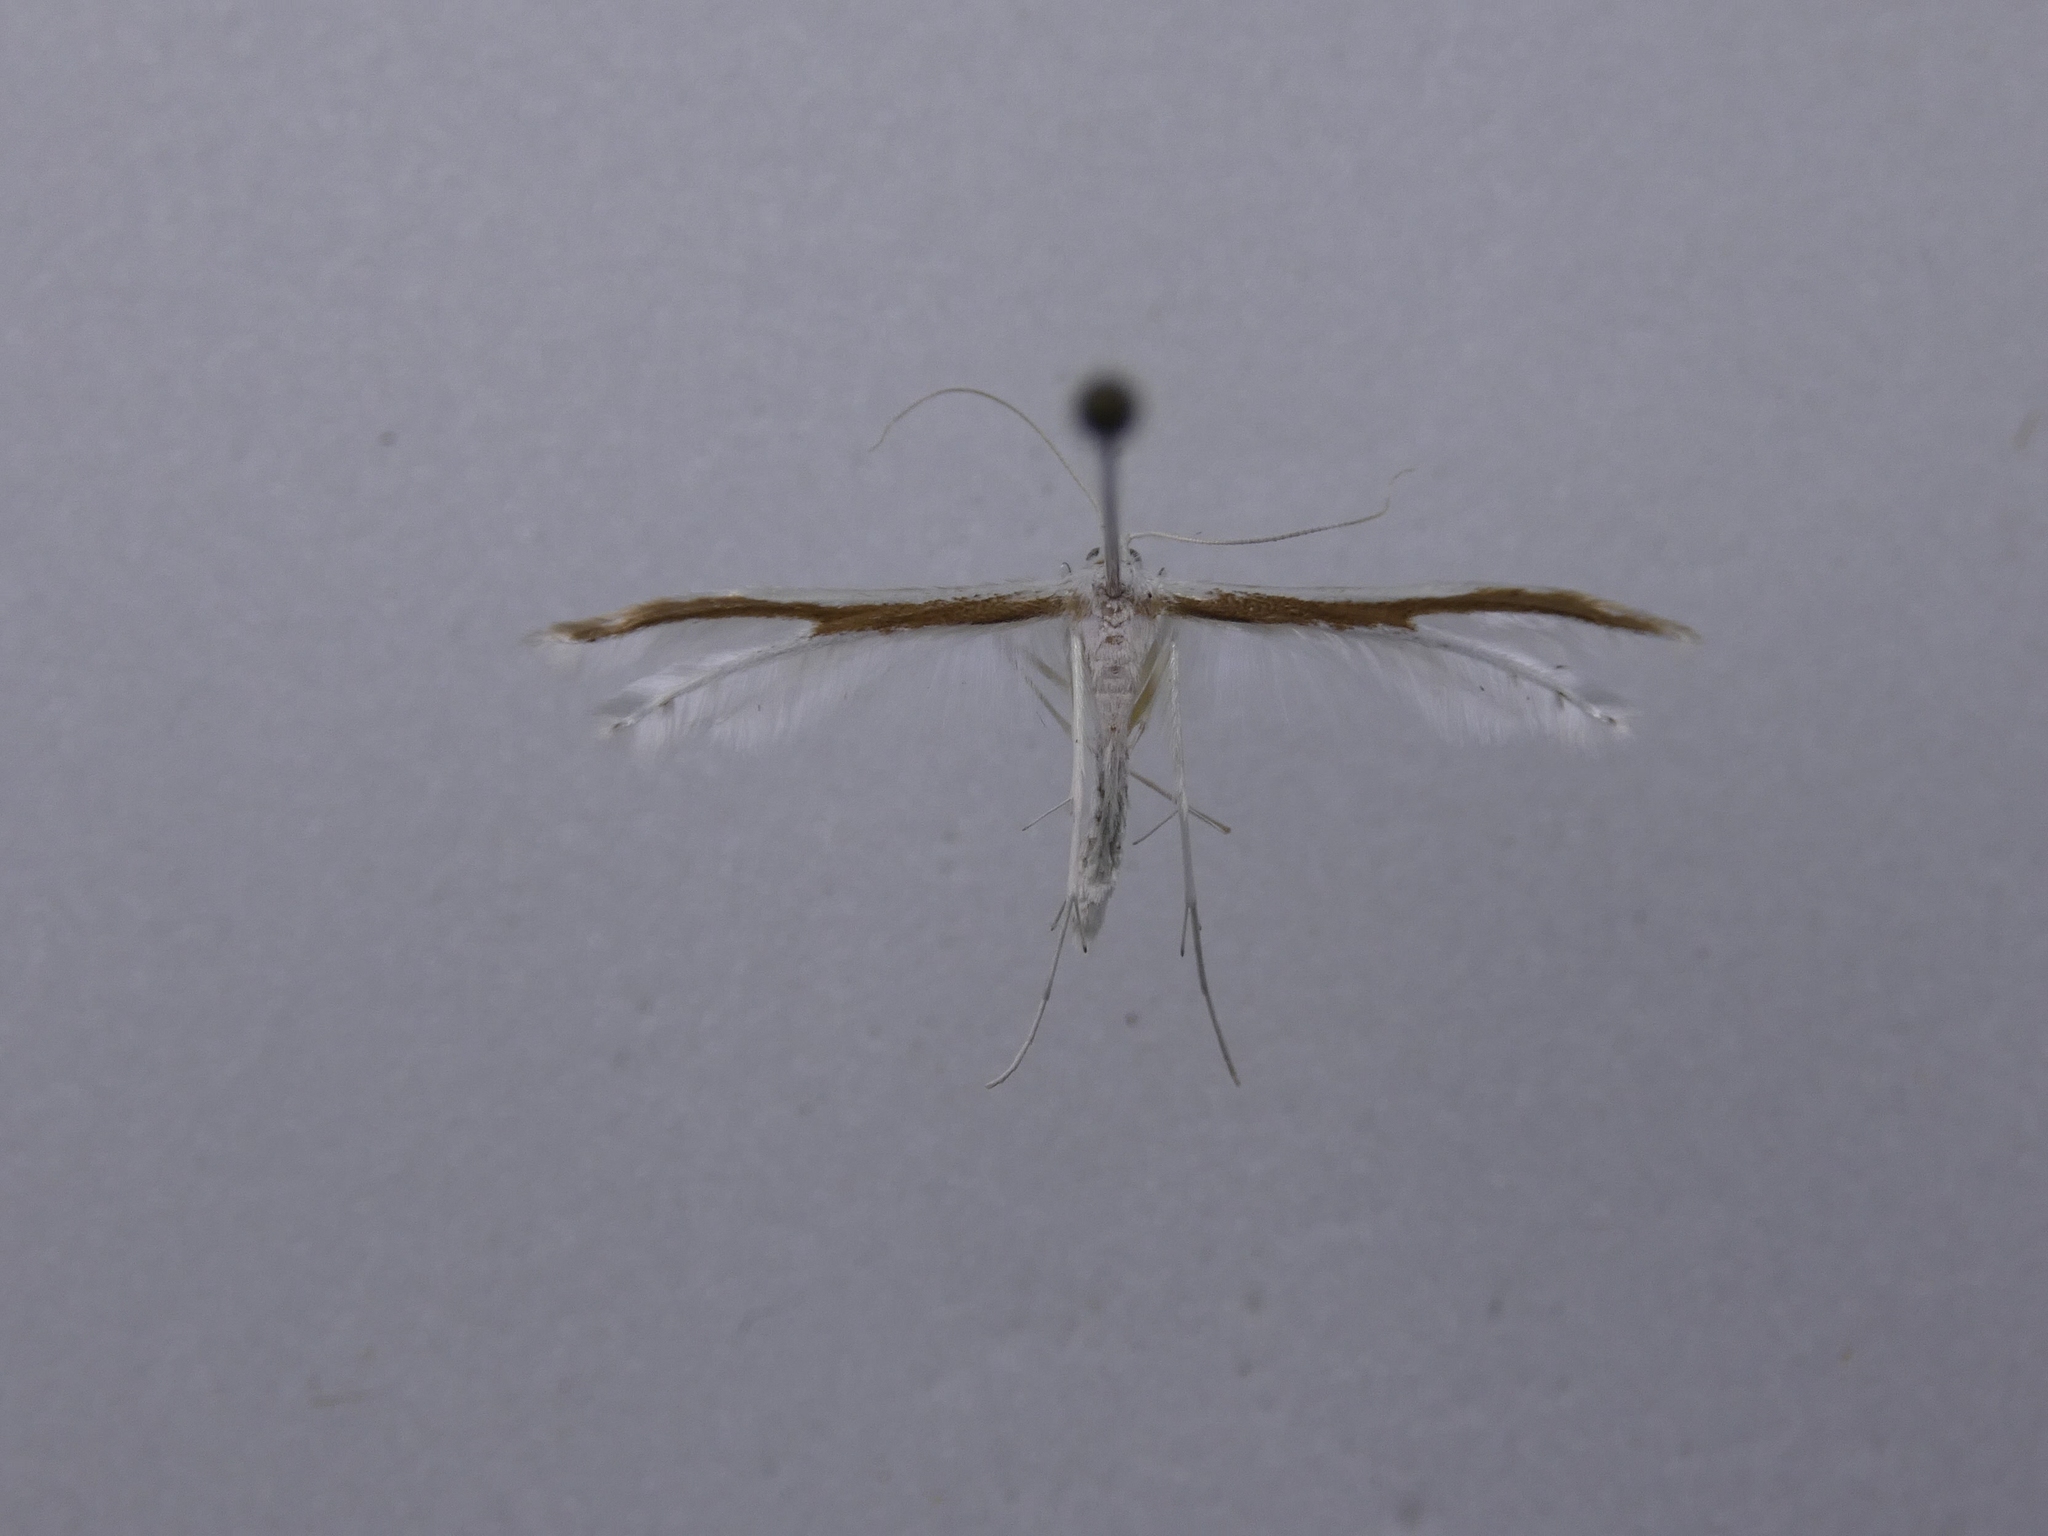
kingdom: Animalia
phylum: Arthropoda
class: Insecta
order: Lepidoptera
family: Pterophoridae
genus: Pterophorus
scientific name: Pterophorus monospilalis
